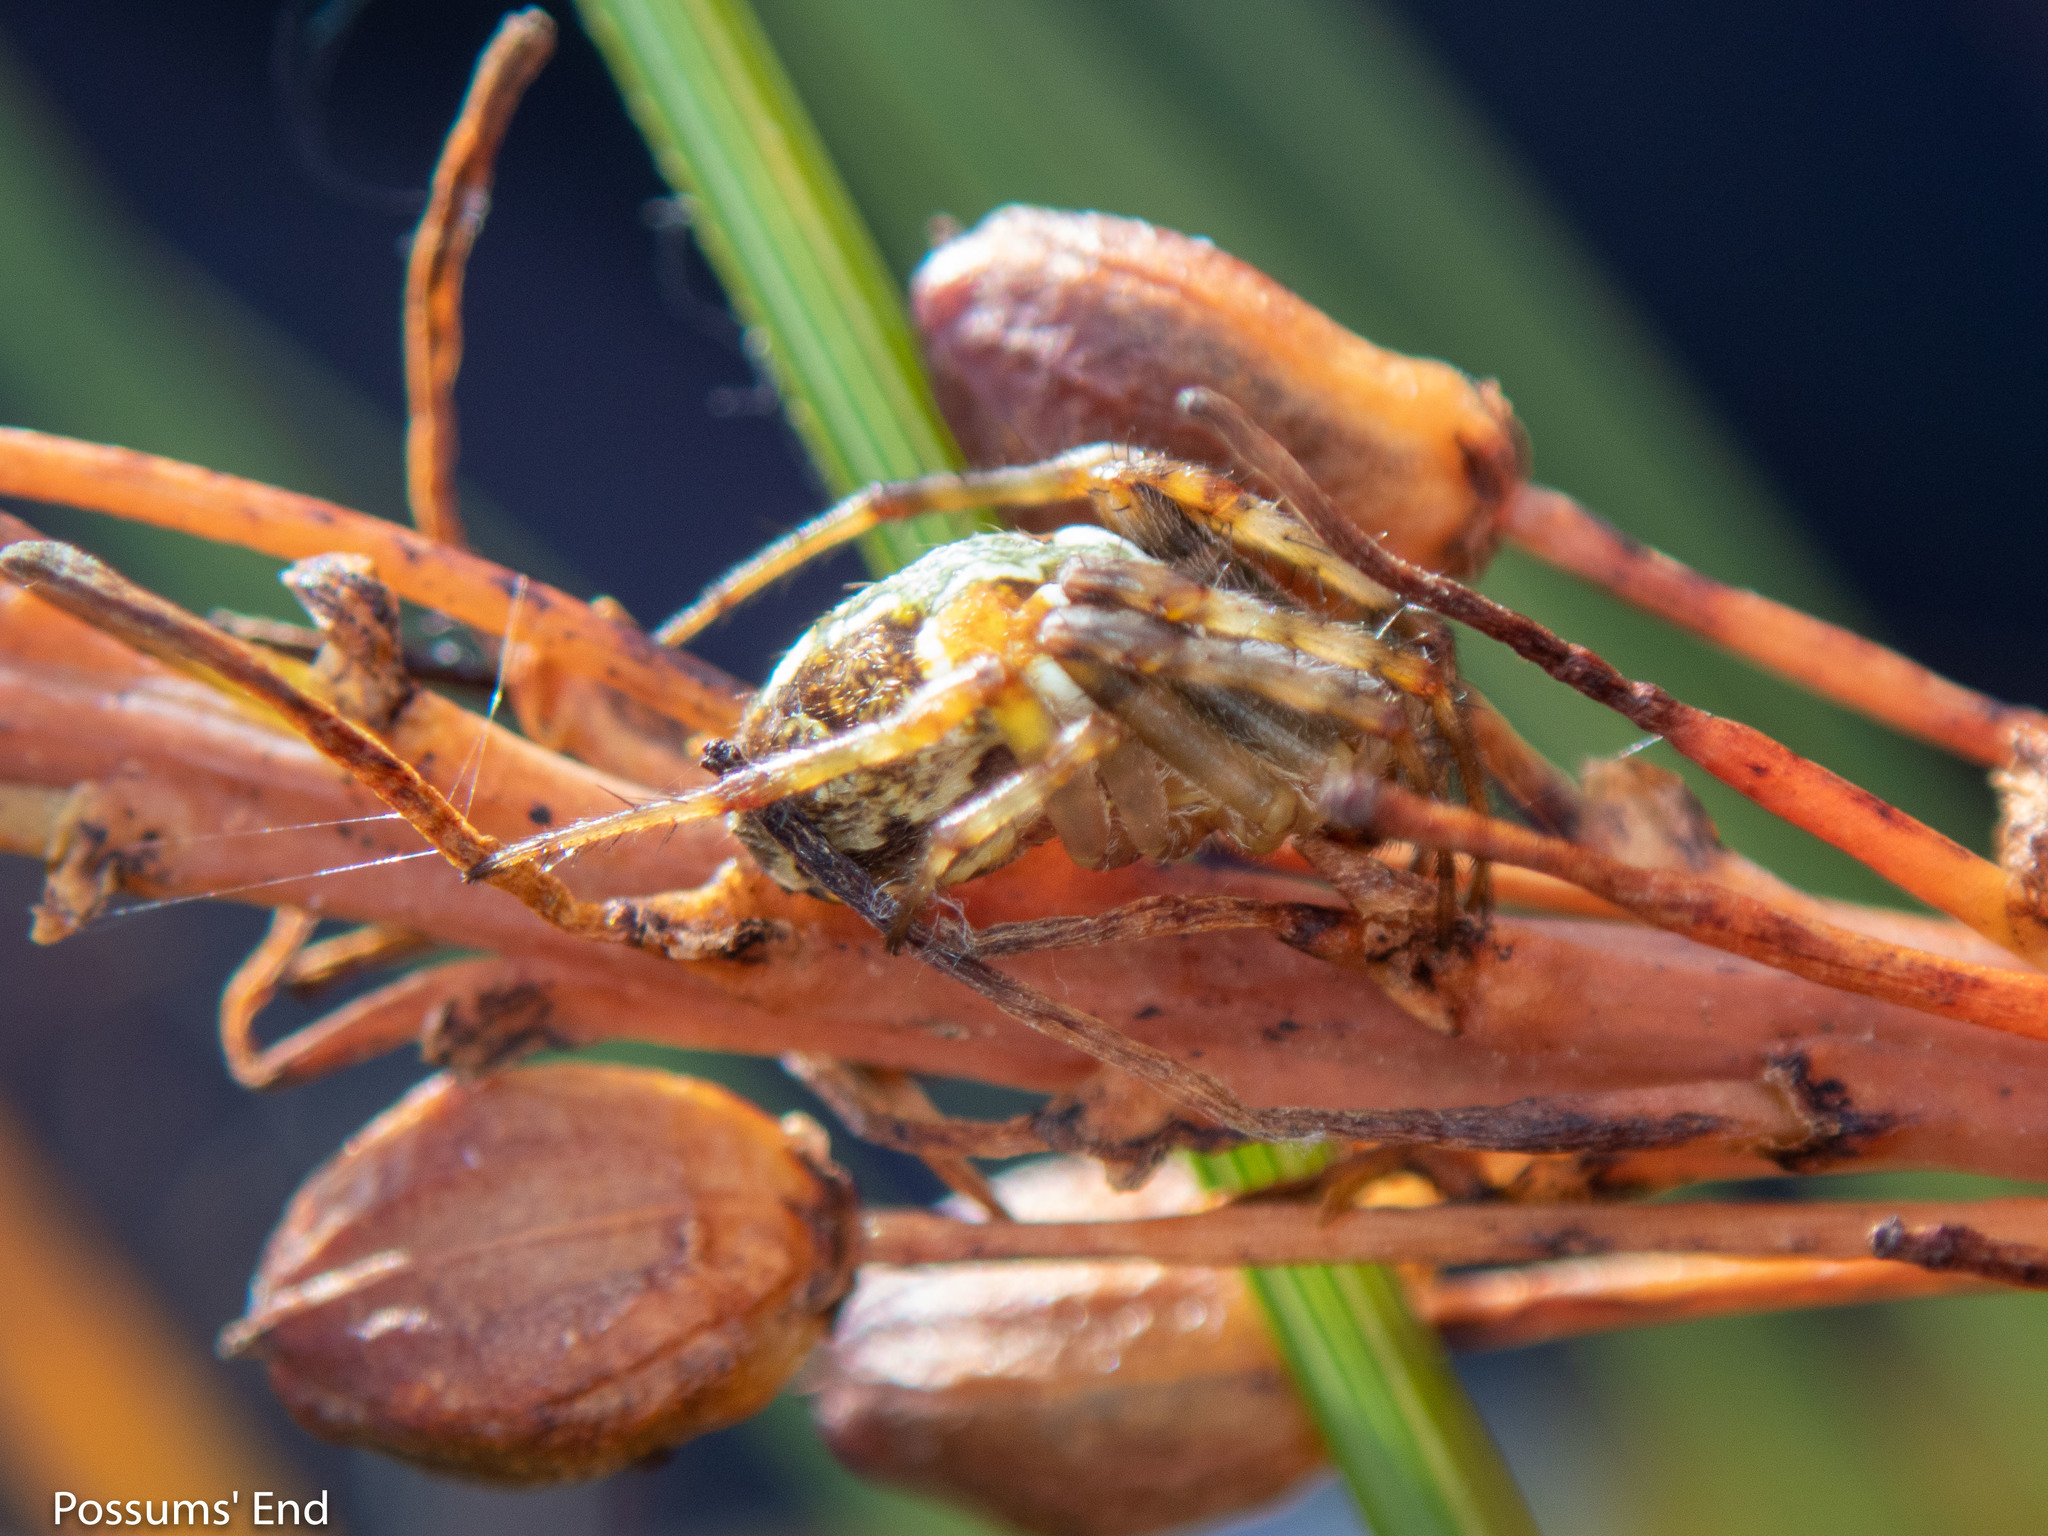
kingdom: Animalia
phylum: Arthropoda
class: Arachnida
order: Araneae
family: Araneidae
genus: Novaranea
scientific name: Novaranea queribunda
